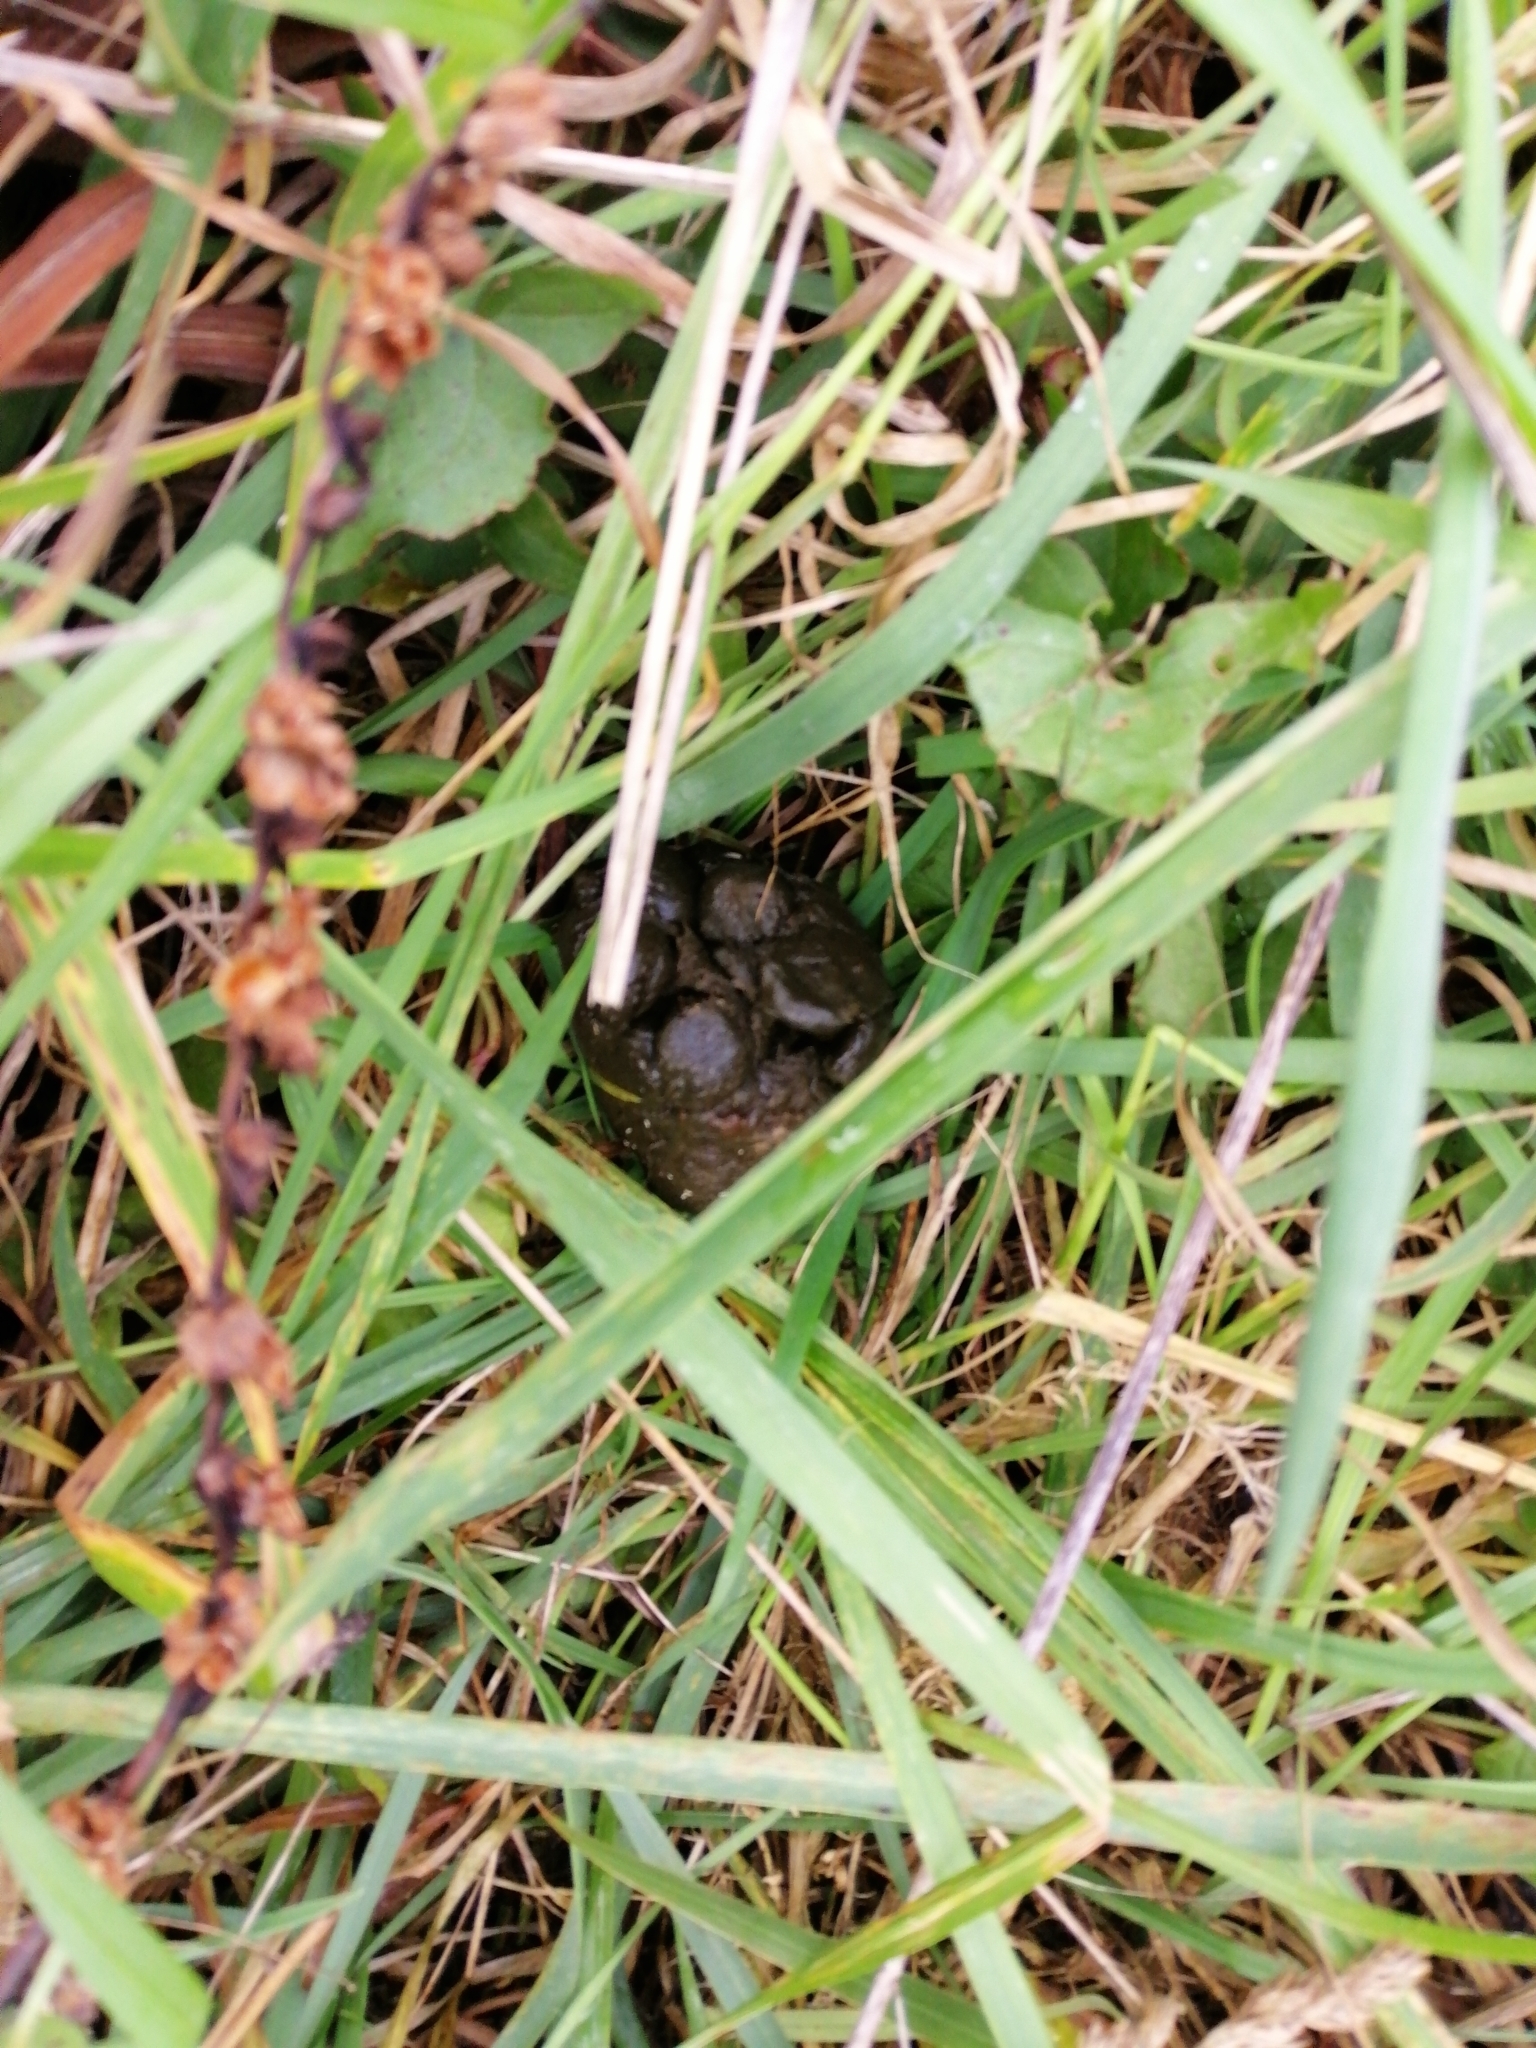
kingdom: Animalia
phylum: Chordata
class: Mammalia
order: Artiodactyla
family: Bovidae
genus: Ovis
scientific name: Ovis aries
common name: Domestic sheep
